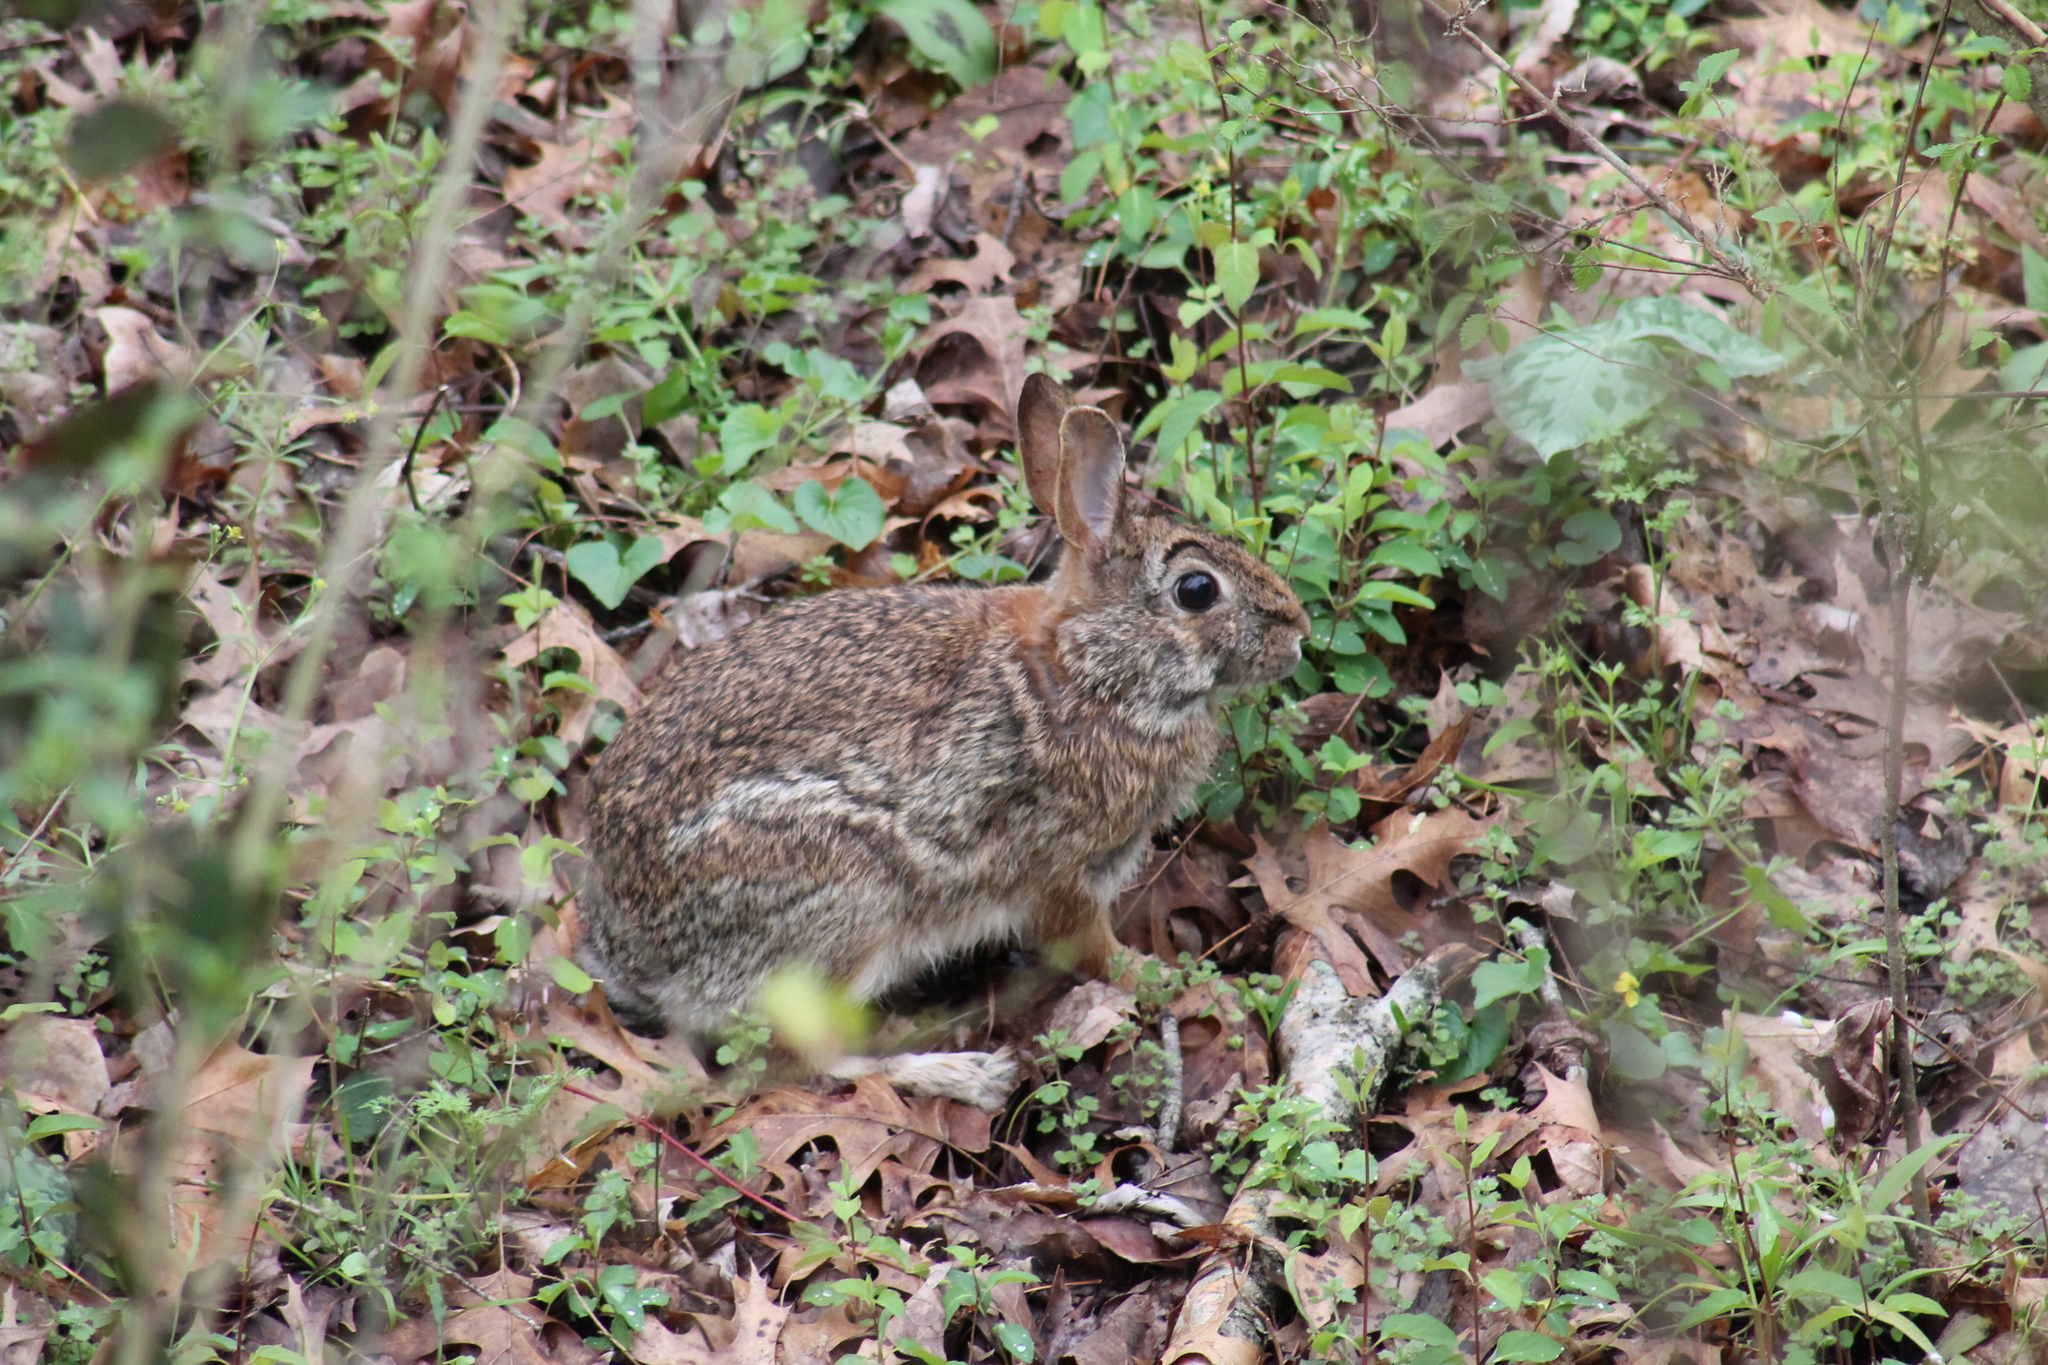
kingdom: Animalia
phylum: Chordata
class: Mammalia
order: Lagomorpha
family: Leporidae
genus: Sylvilagus
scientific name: Sylvilagus floridanus
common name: Eastern cottontail
